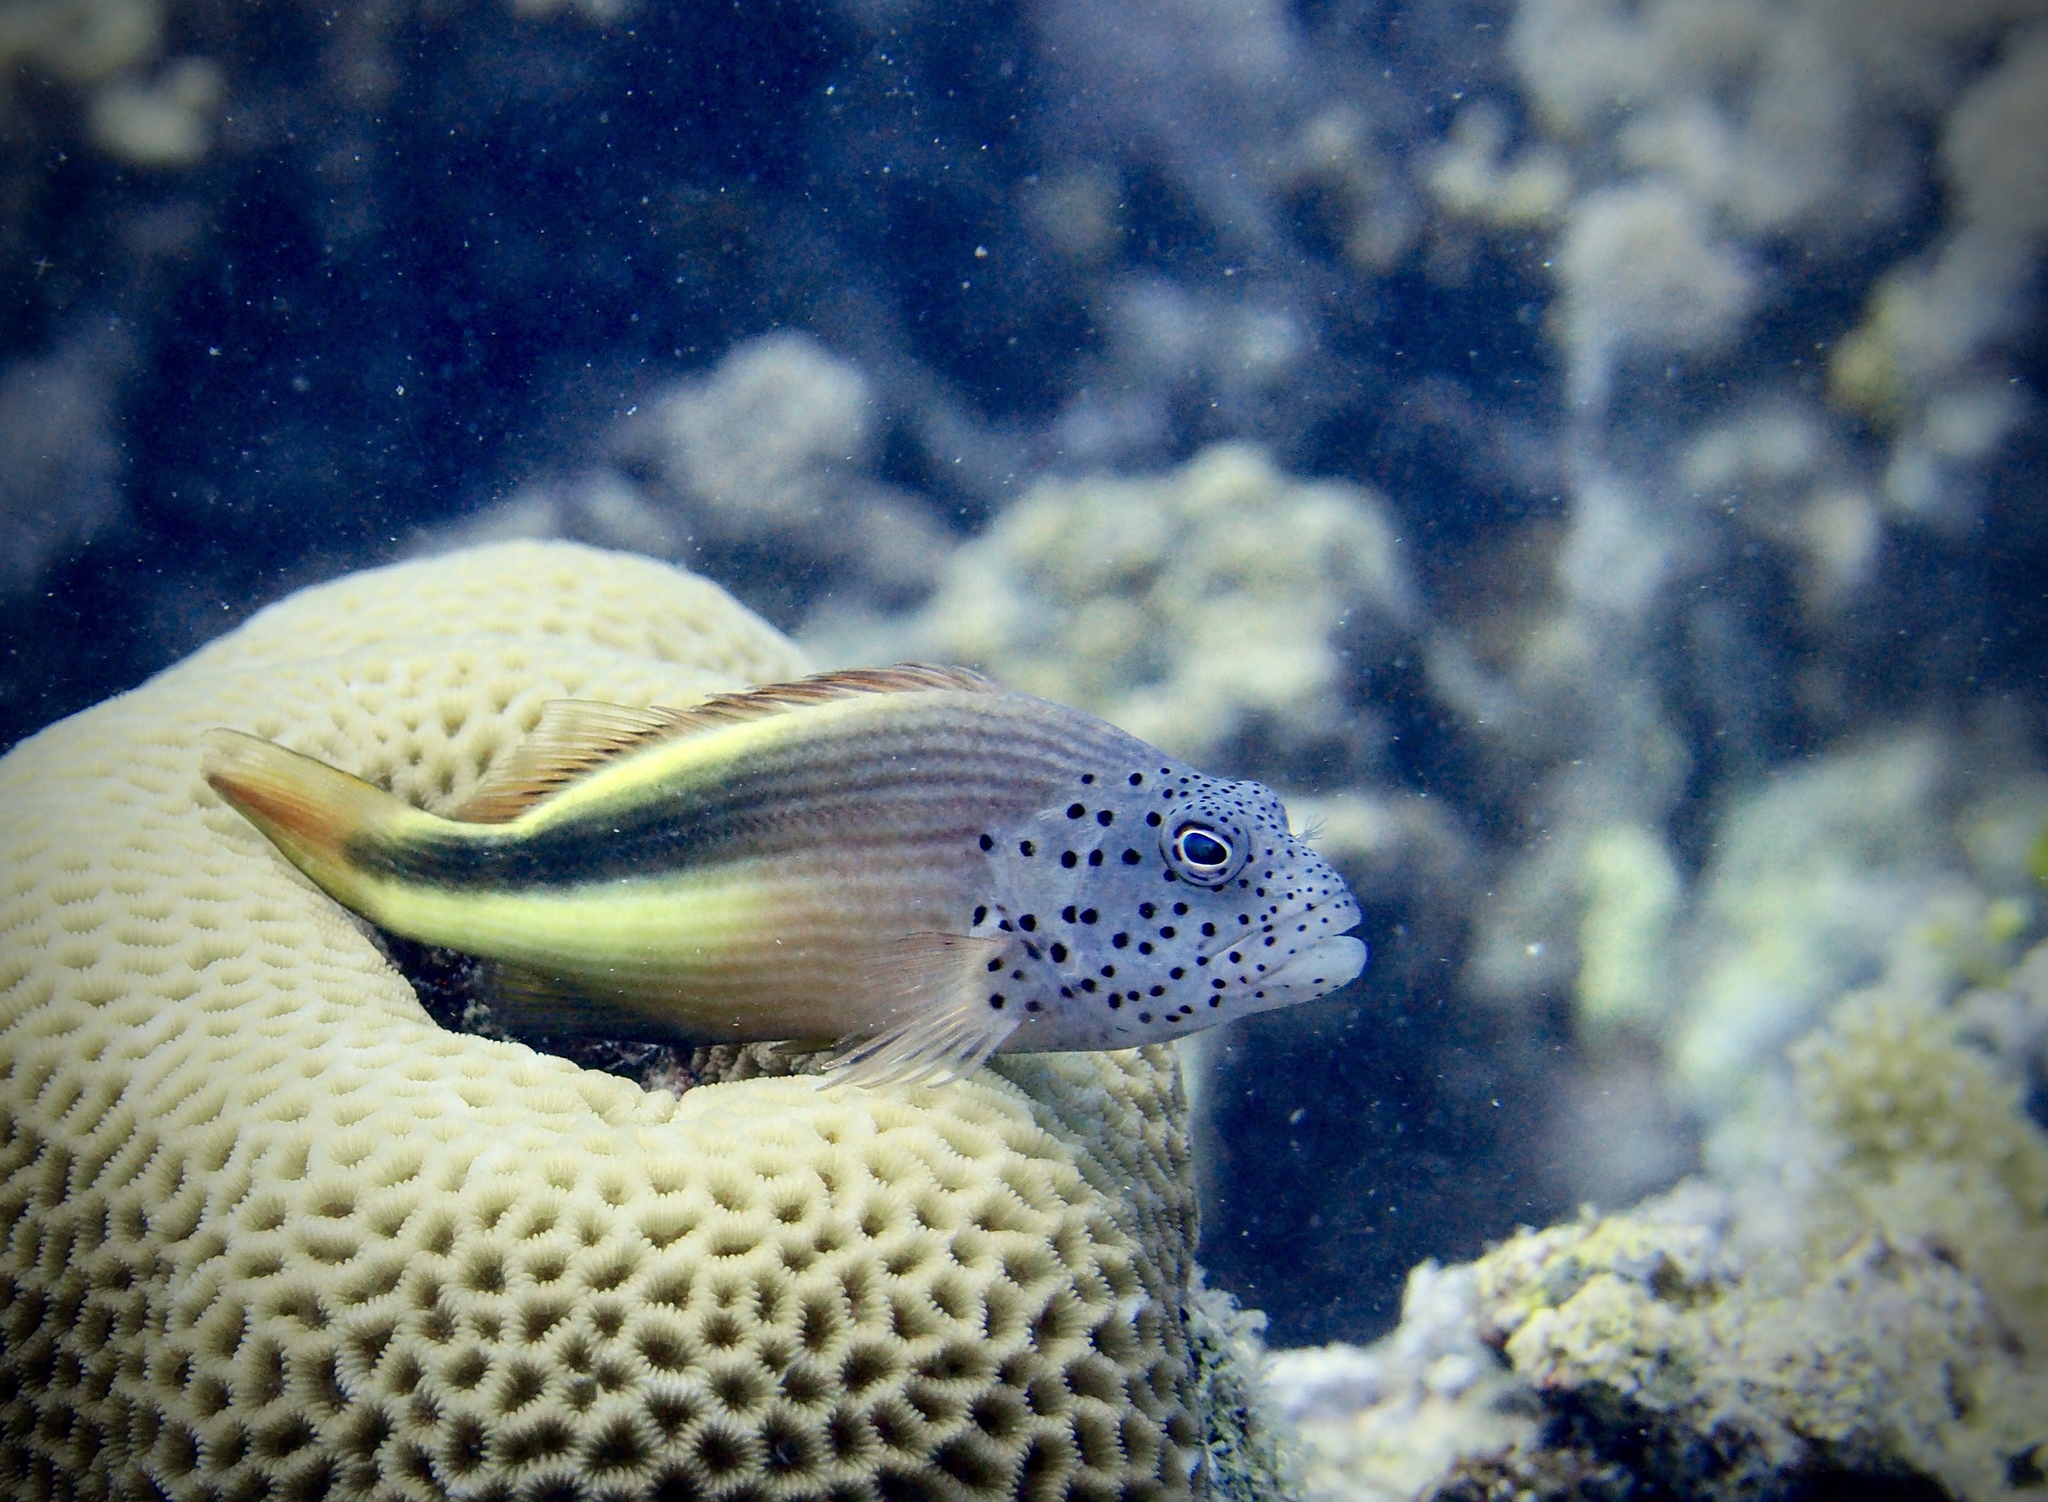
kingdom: Animalia
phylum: Chordata
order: Perciformes
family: Cirrhitidae
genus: Paracirrhites
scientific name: Paracirrhites forsteri
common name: Freckled hawkfish
